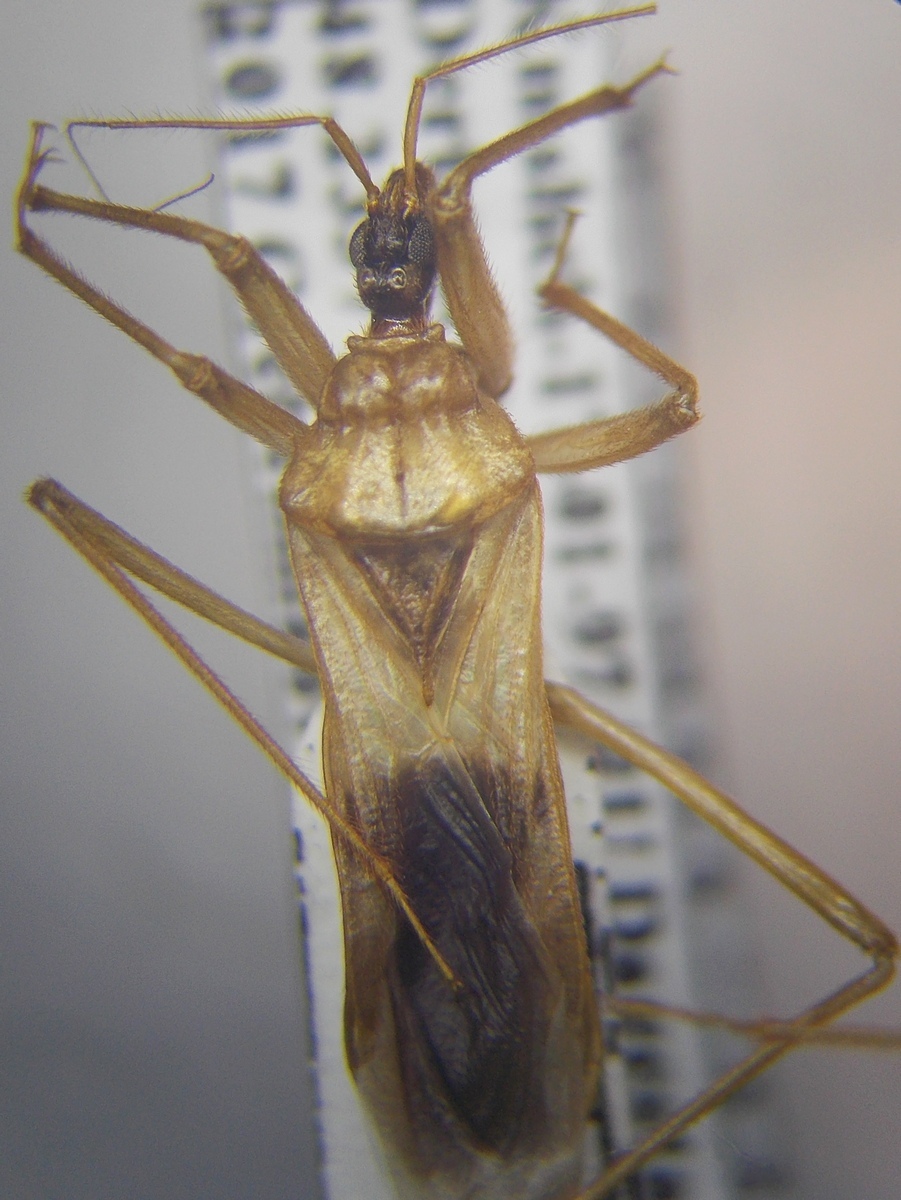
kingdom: Animalia
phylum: Arthropoda
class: Insecta
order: Hemiptera
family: Reduviidae
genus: Reduvius
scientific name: Reduvius testaceus
